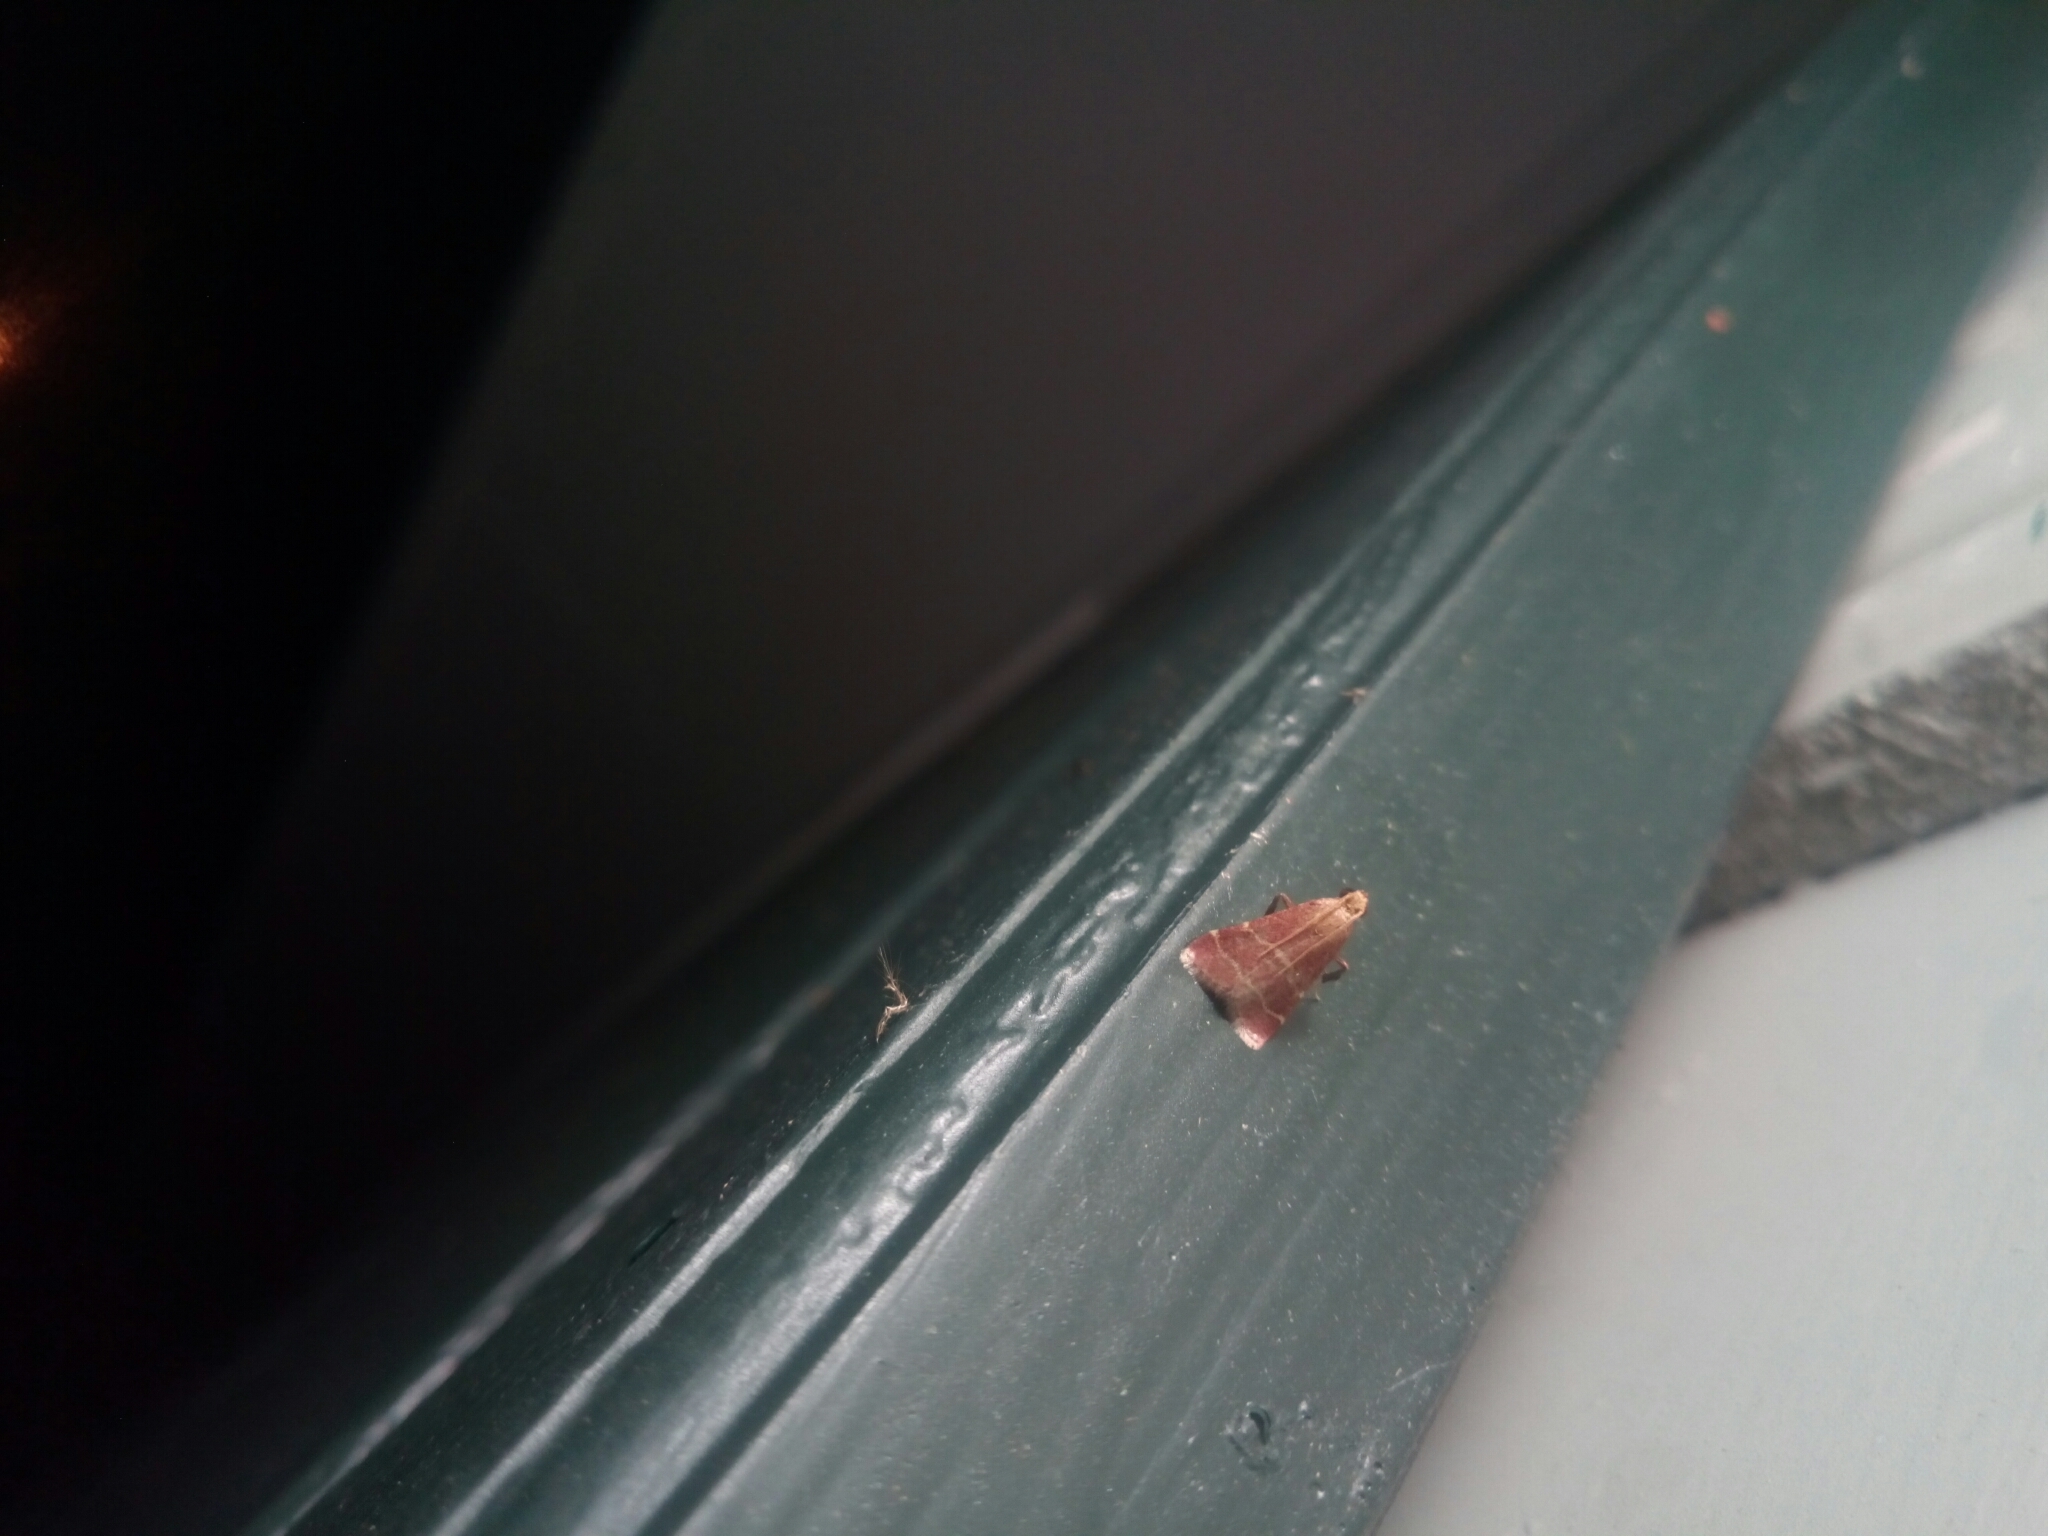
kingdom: Animalia
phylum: Arthropoda
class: Insecta
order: Lepidoptera
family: Pyralidae
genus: Arta
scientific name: Arta statalis
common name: Posturing arta moth
